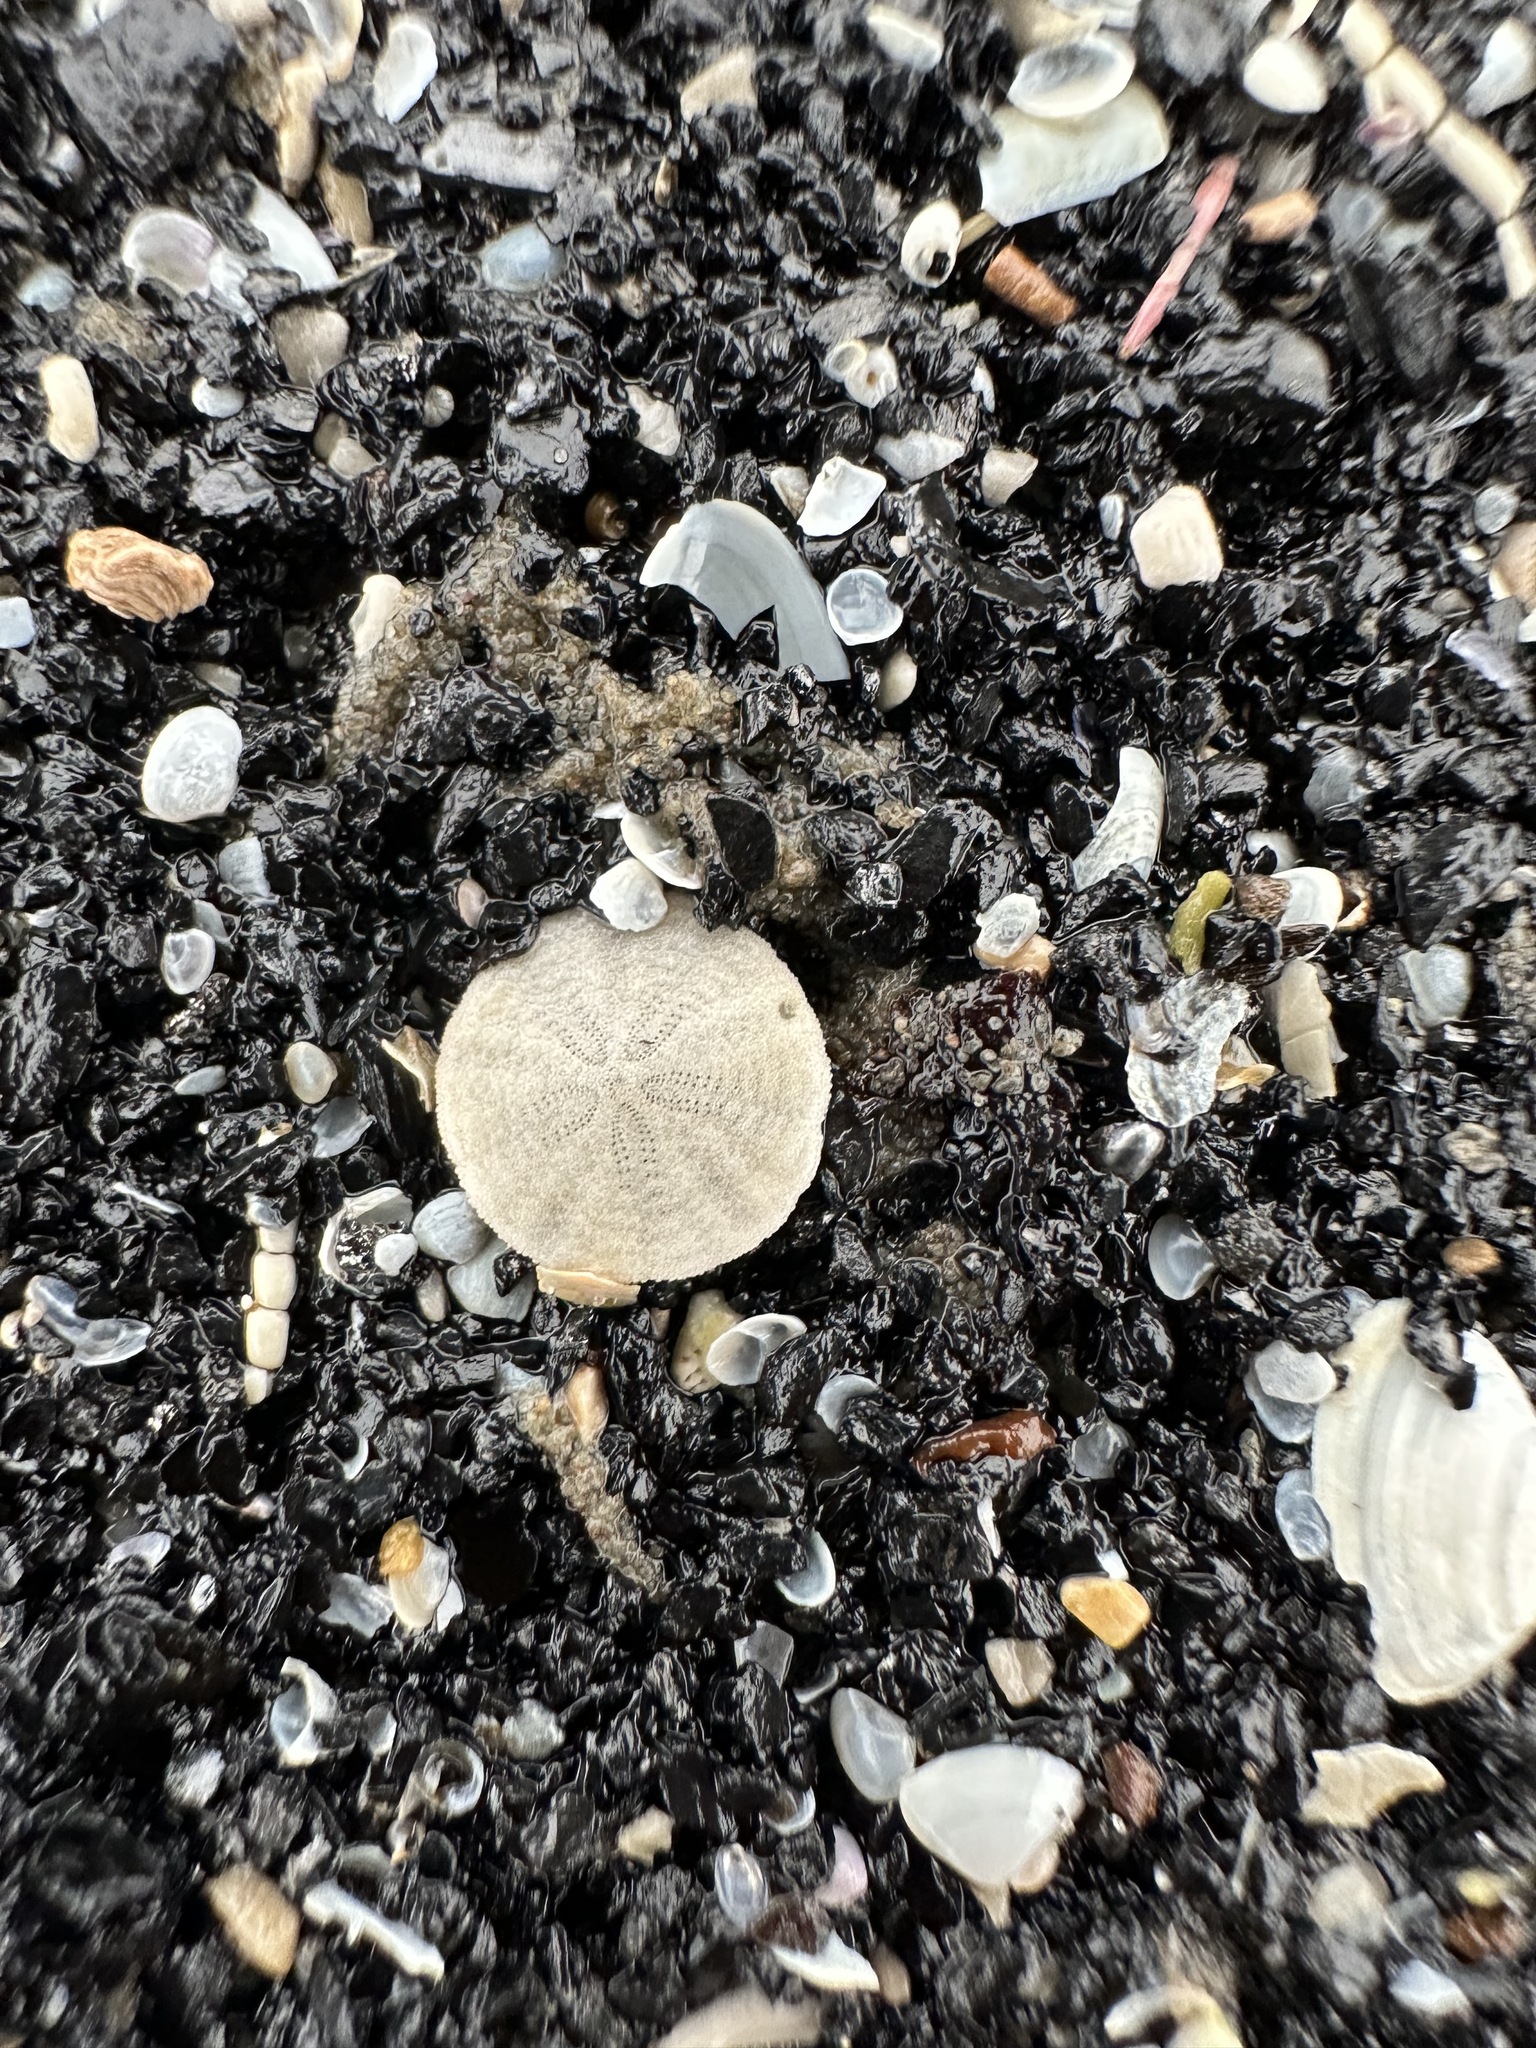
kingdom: Animalia
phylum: Echinodermata
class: Echinoidea
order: Echinolampadacea
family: Echinarachniidae
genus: Echinarachnius
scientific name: Echinarachnius parma
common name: Common sand dollar
